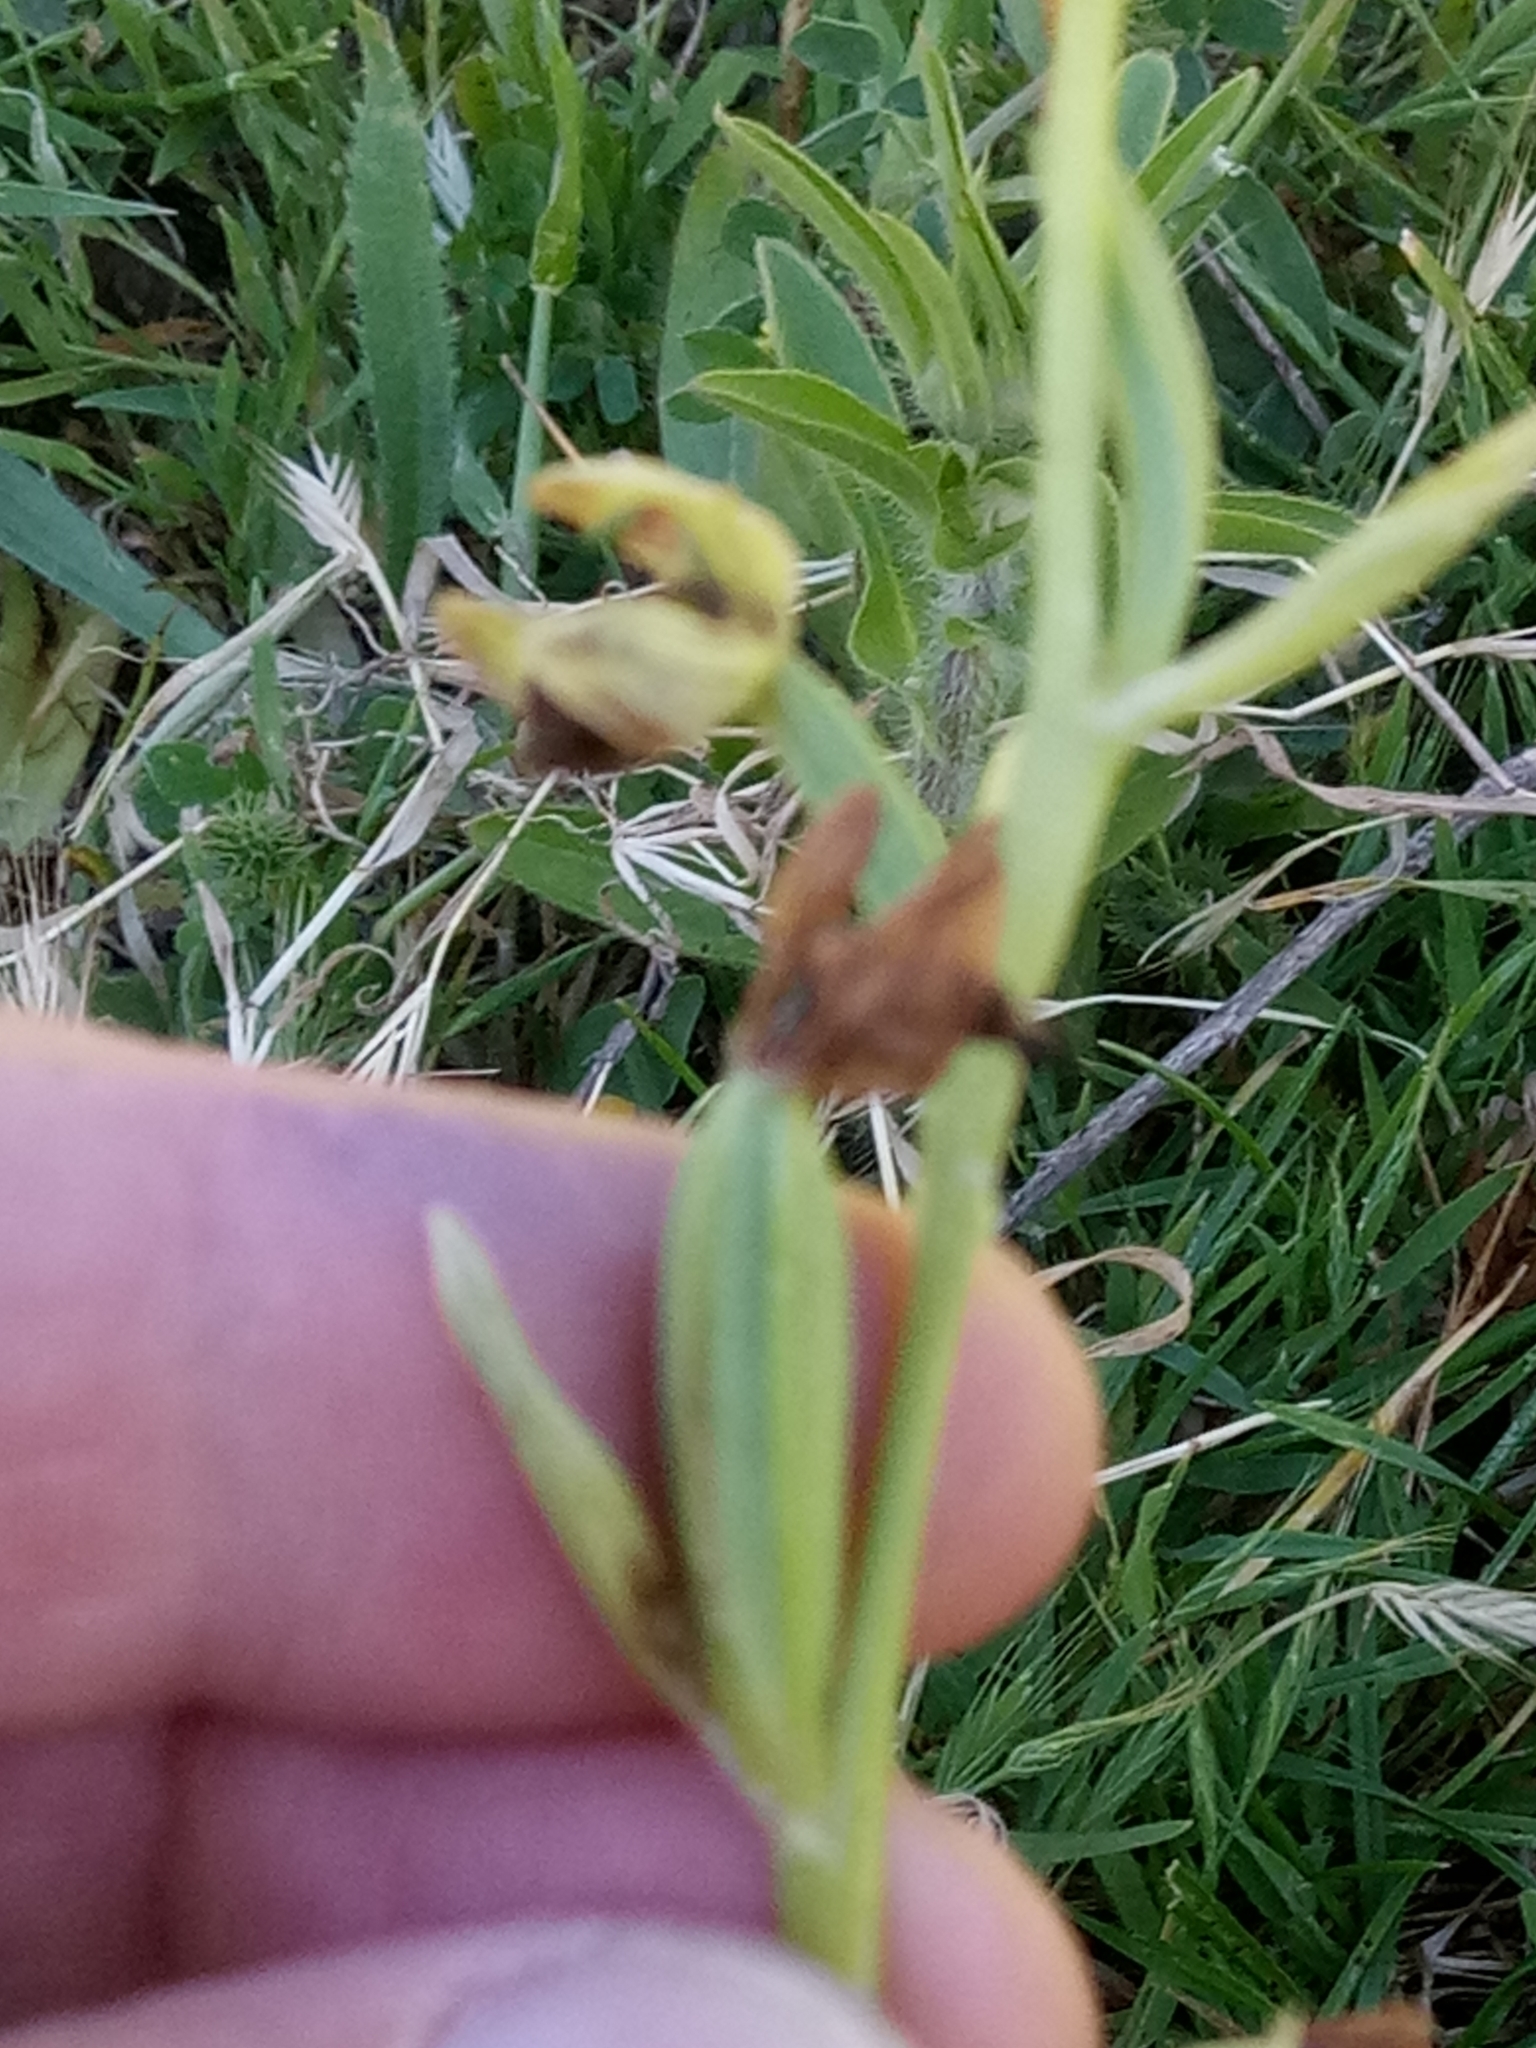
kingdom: Plantae
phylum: Tracheophyta
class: Liliopsida
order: Asparagales
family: Orchidaceae
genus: Ophrys
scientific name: Ophrys scolopax
